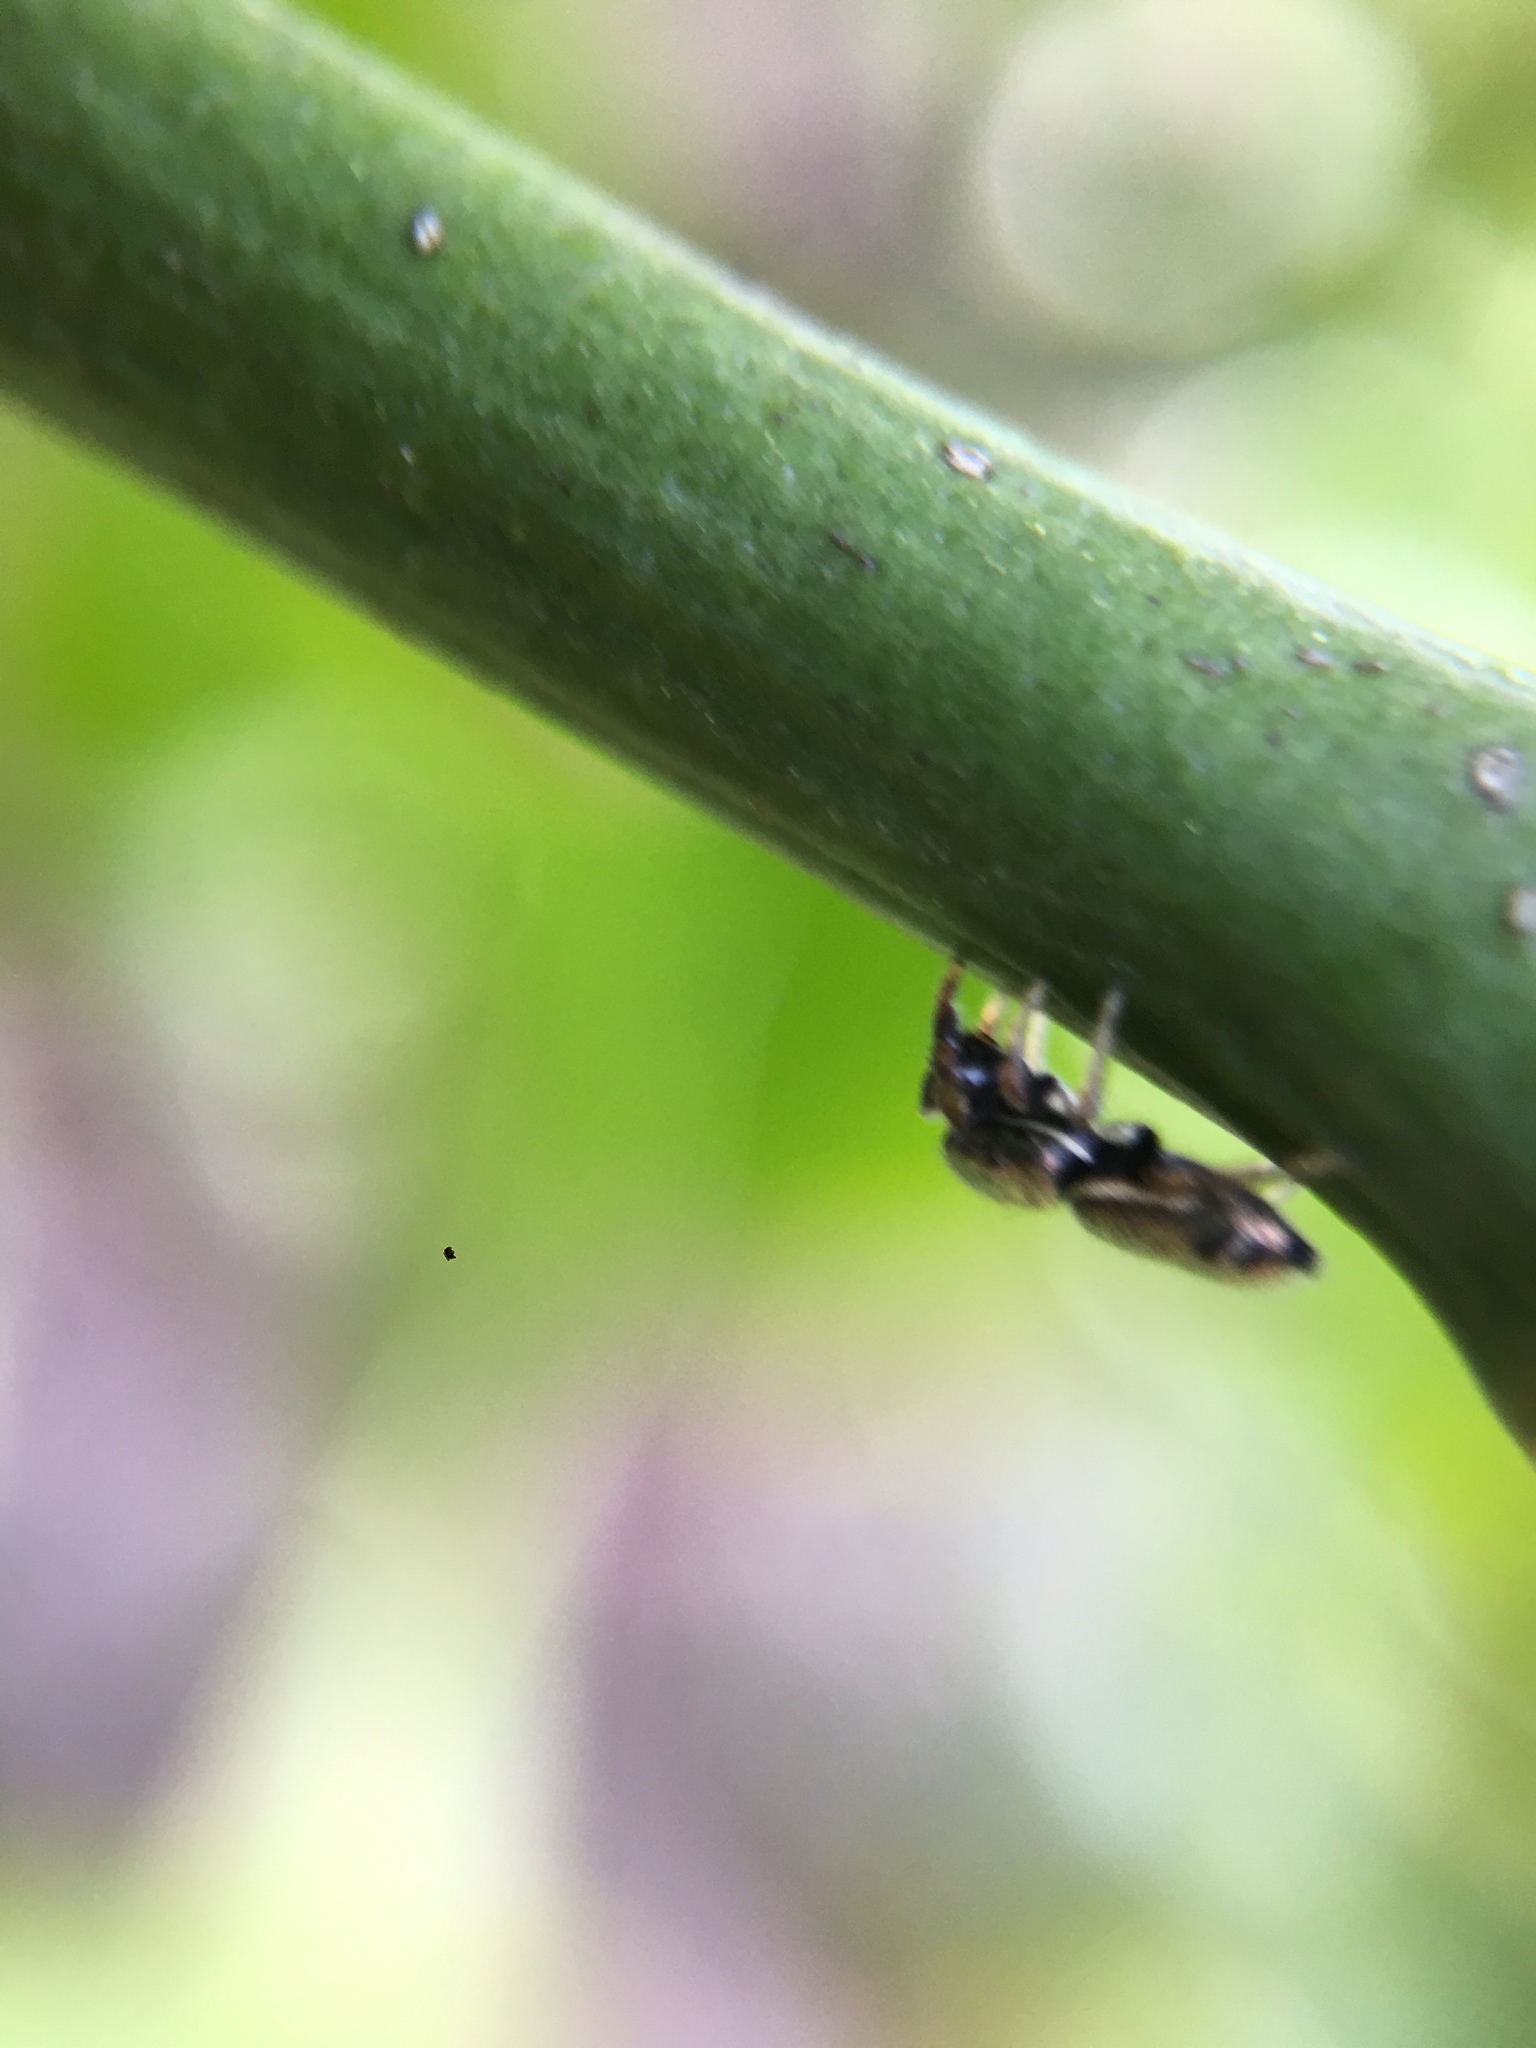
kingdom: Animalia
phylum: Arthropoda
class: Arachnida
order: Araneae
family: Salticidae
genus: Sassacus
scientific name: Sassacus vitis
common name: Jumping spiders
